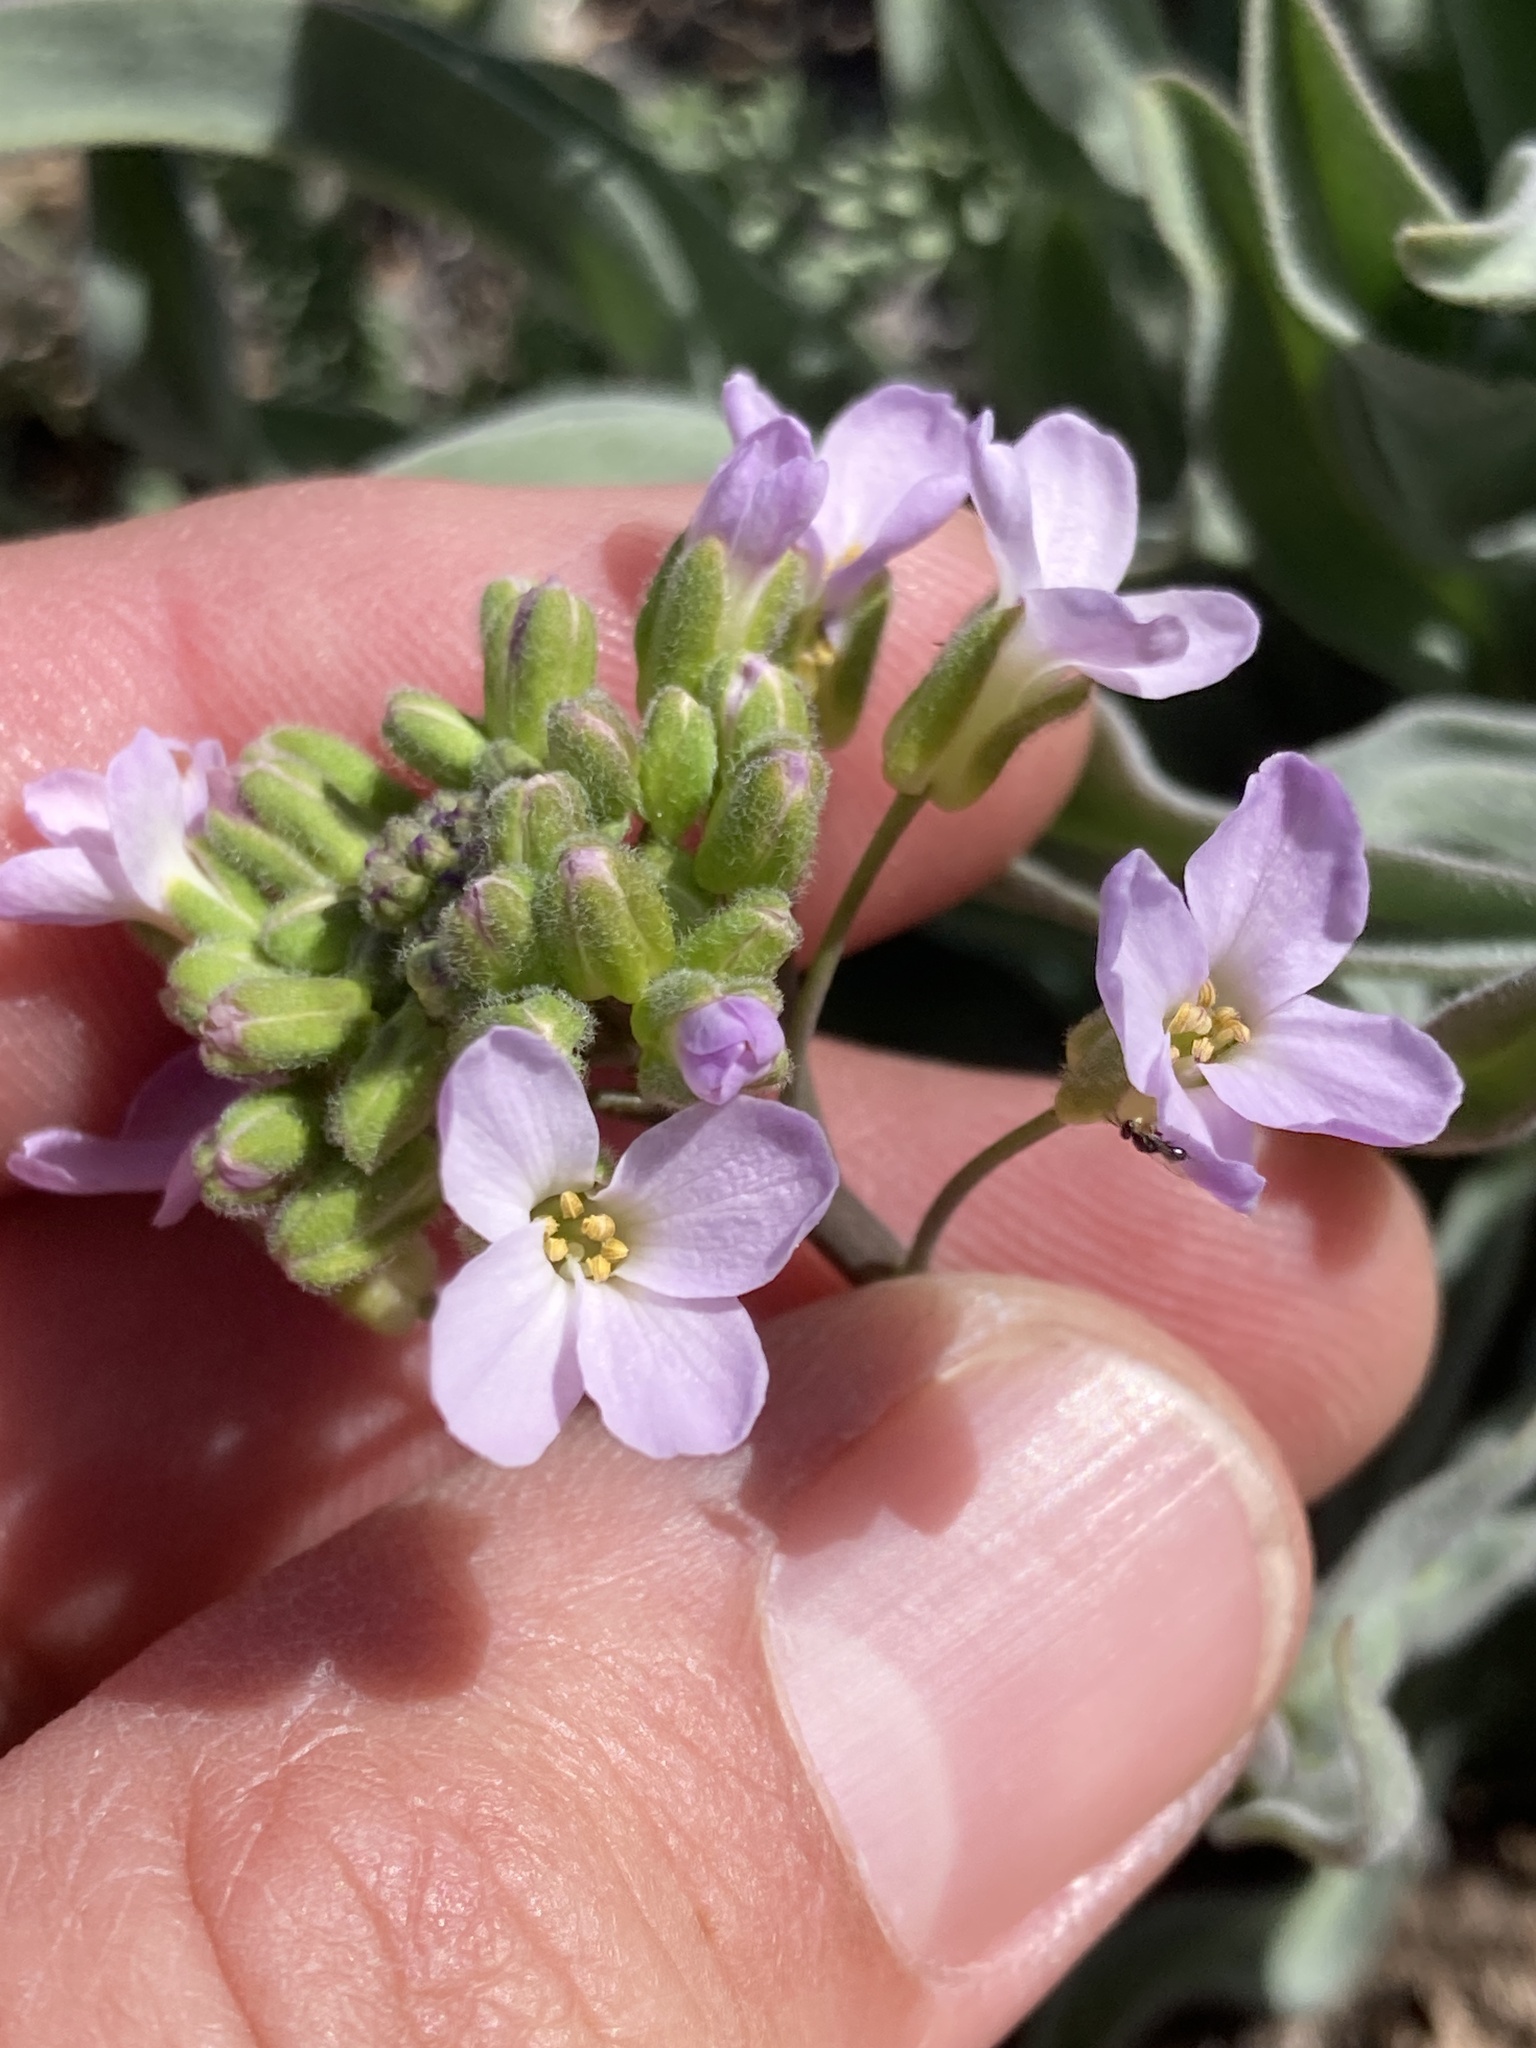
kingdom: Plantae
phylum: Tracheophyta
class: Magnoliopsida
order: Brassicales
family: Brassicaceae
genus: Phoenicaulis
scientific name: Phoenicaulis cheiranthoides
